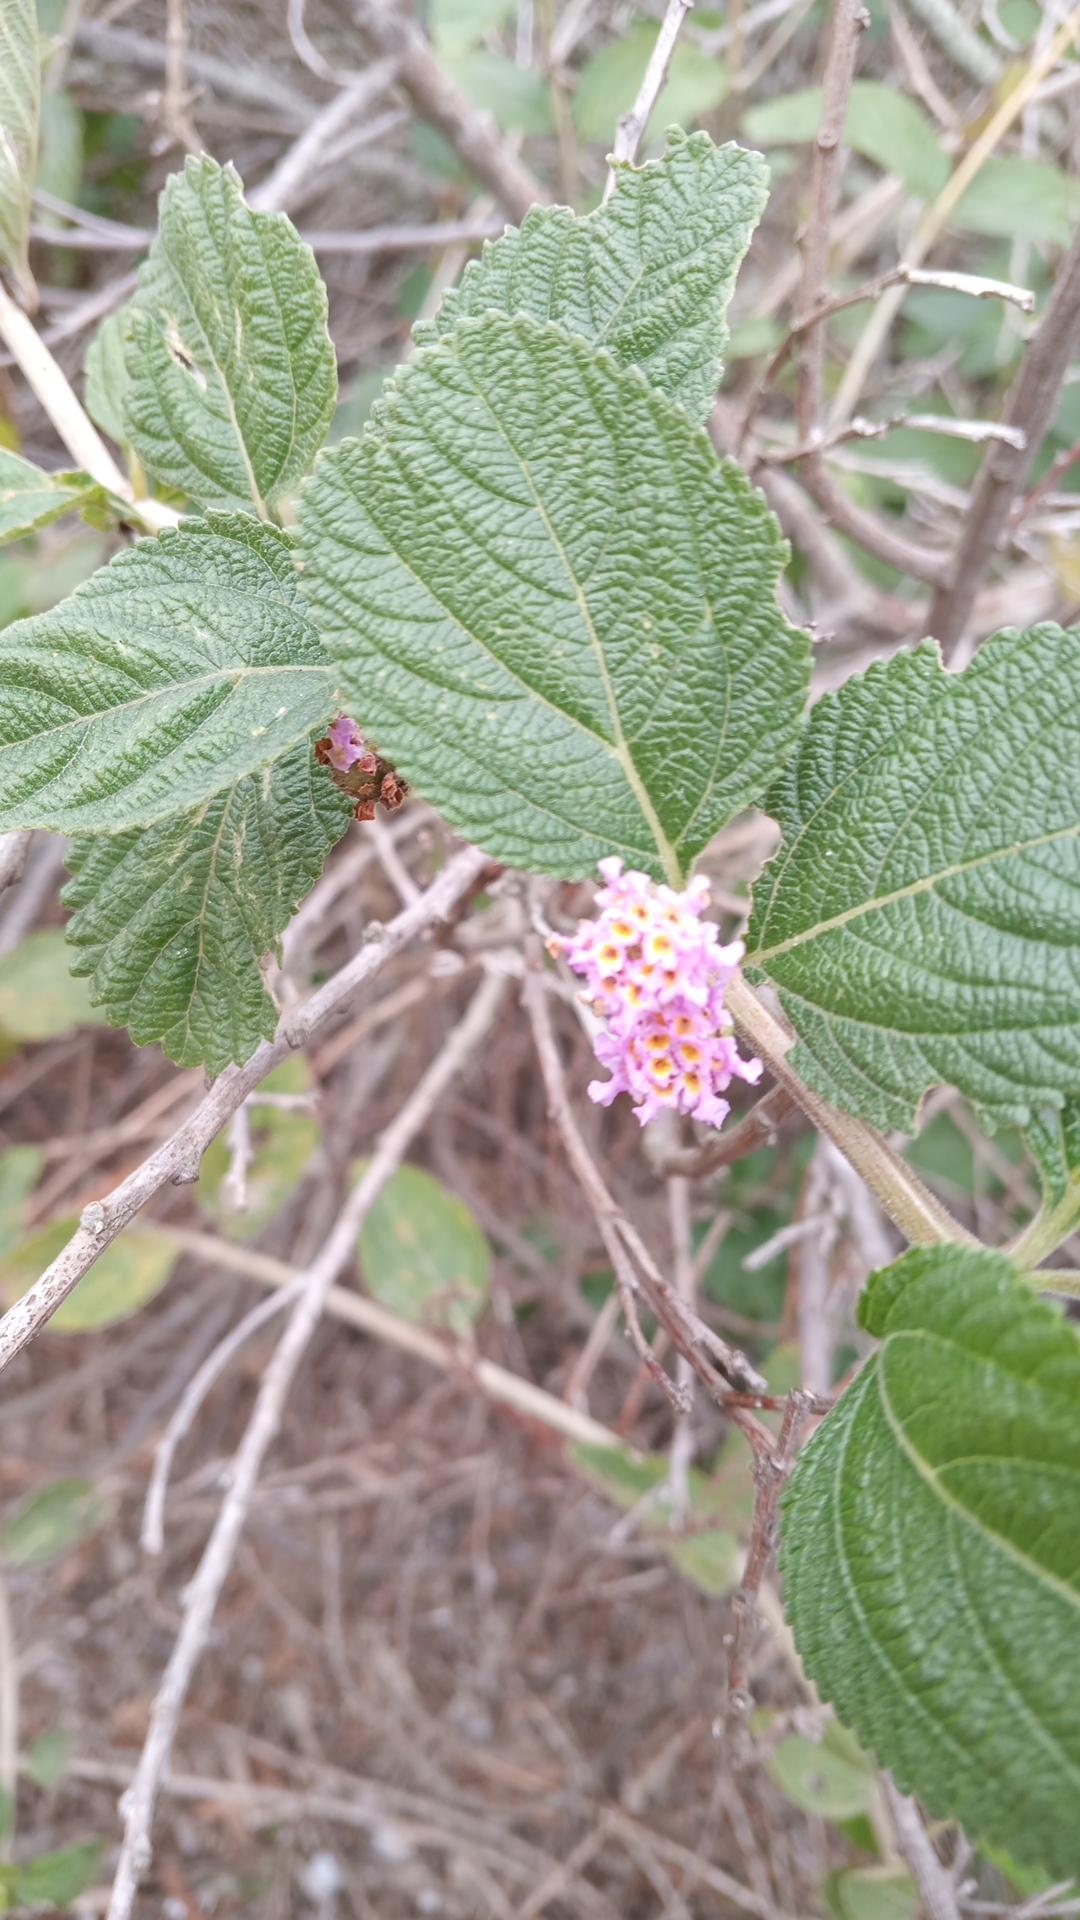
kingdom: Plantae
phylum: Tracheophyta
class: Magnoliopsida
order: Lamiales
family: Verbenaceae
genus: Lippia
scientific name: Lippia alba
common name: Bushy matgrass
